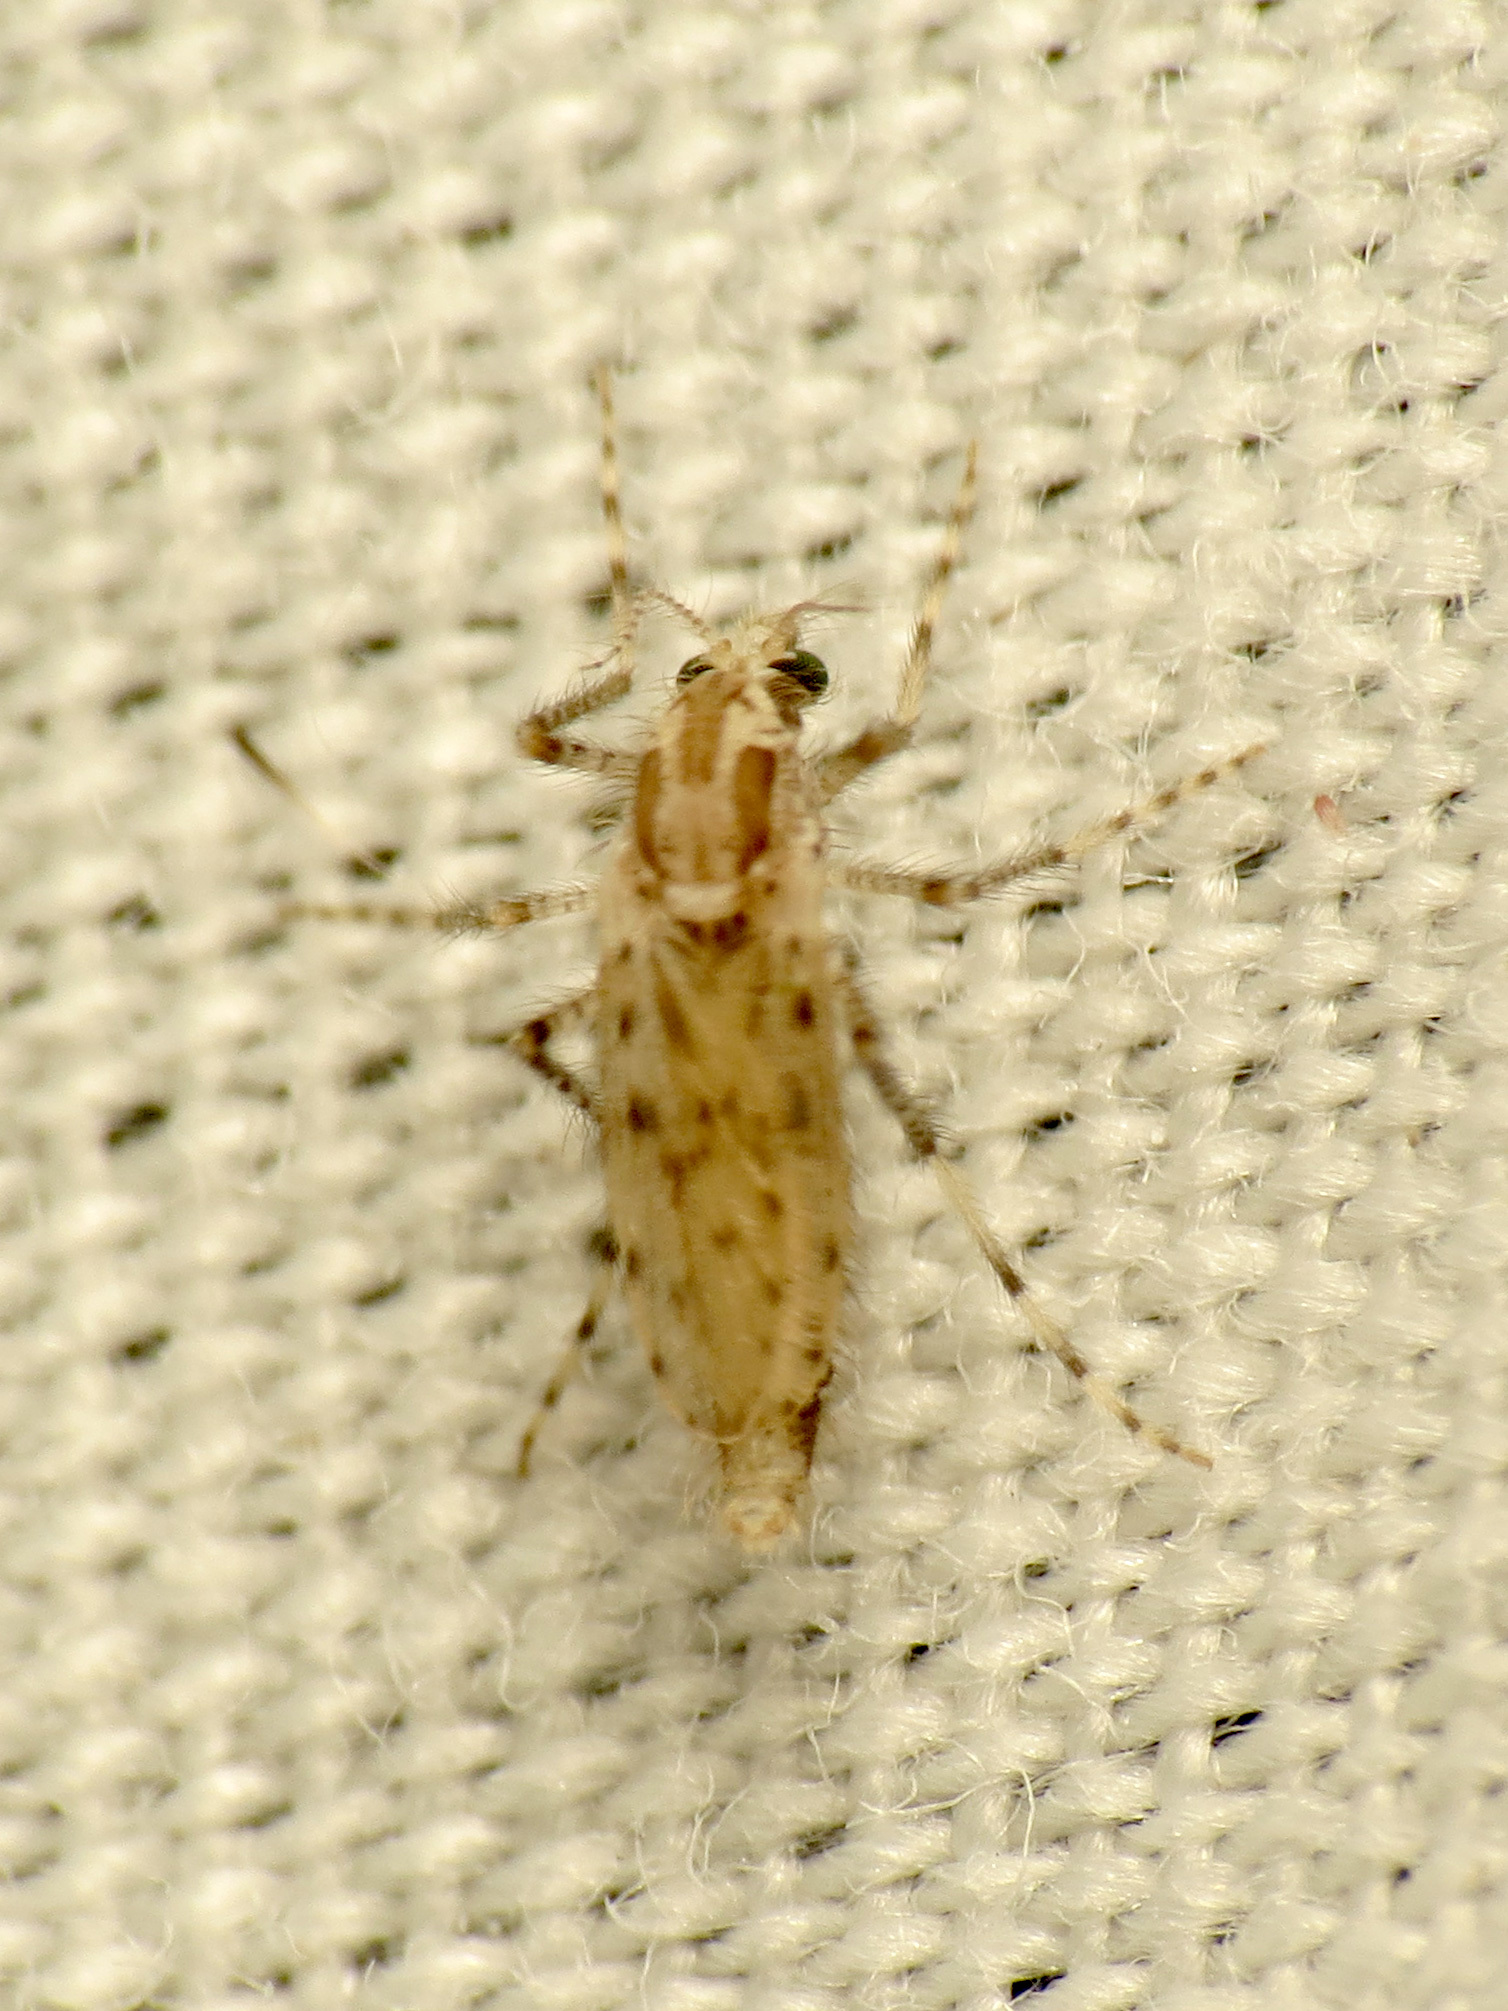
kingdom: Animalia
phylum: Arthropoda
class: Insecta
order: Diptera
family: Chaoboridae
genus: Chaoborus
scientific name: Chaoborus punctipennis
